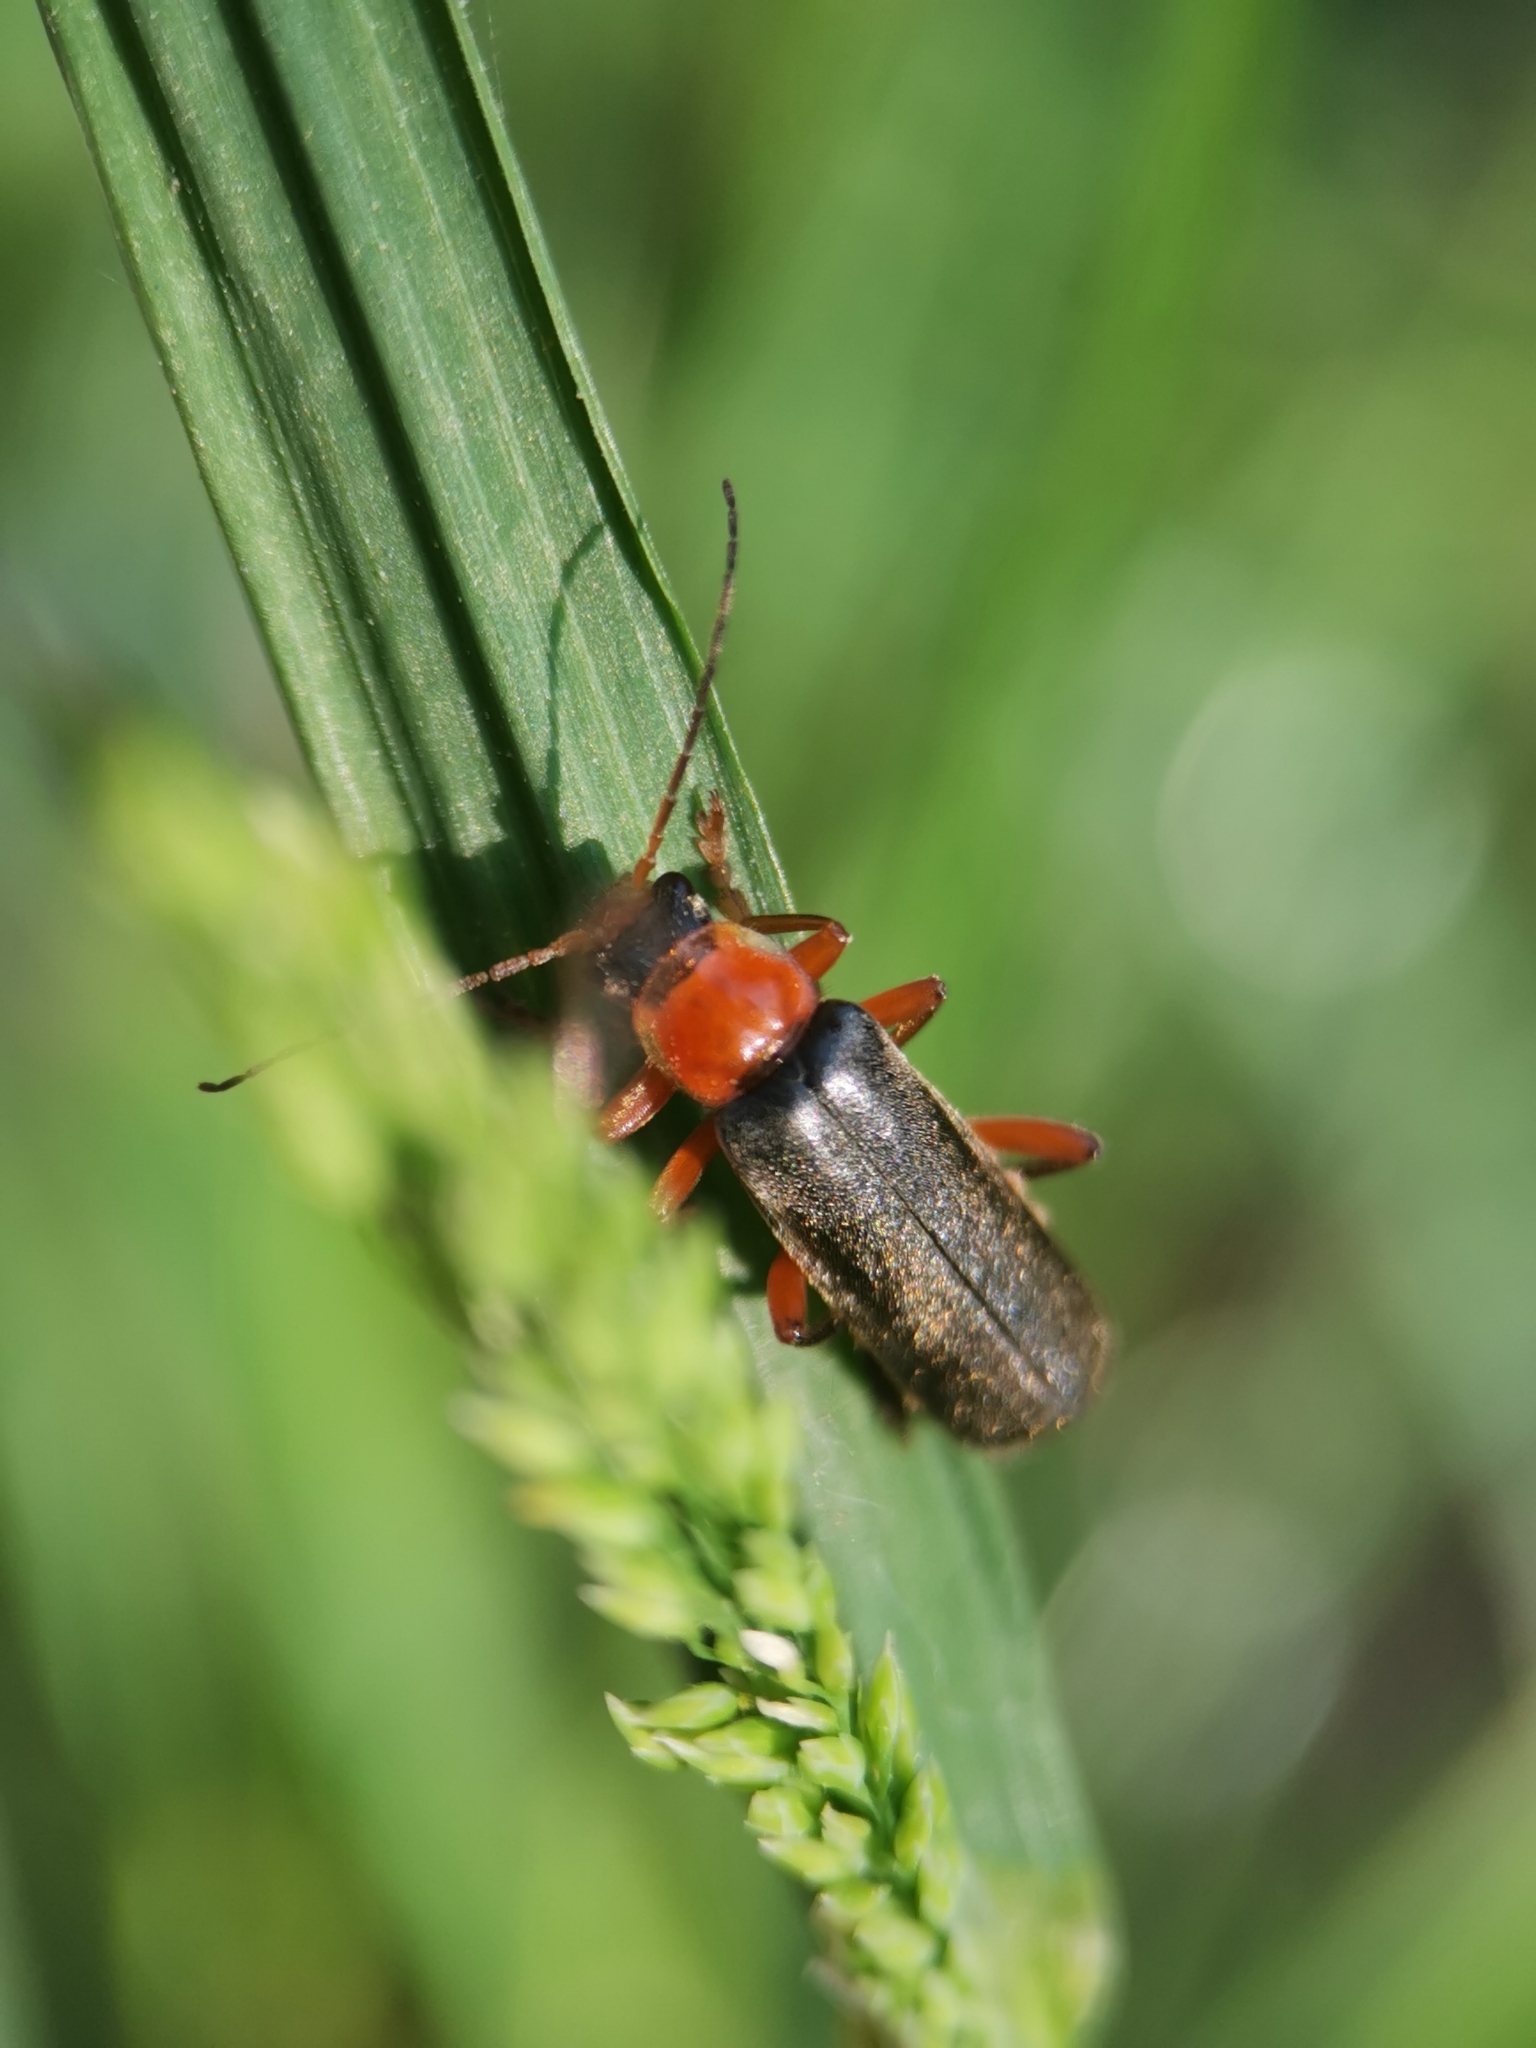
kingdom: Animalia
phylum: Arthropoda
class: Insecta
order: Coleoptera
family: Cantharidae
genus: Cantharis
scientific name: Cantharis pellucida
